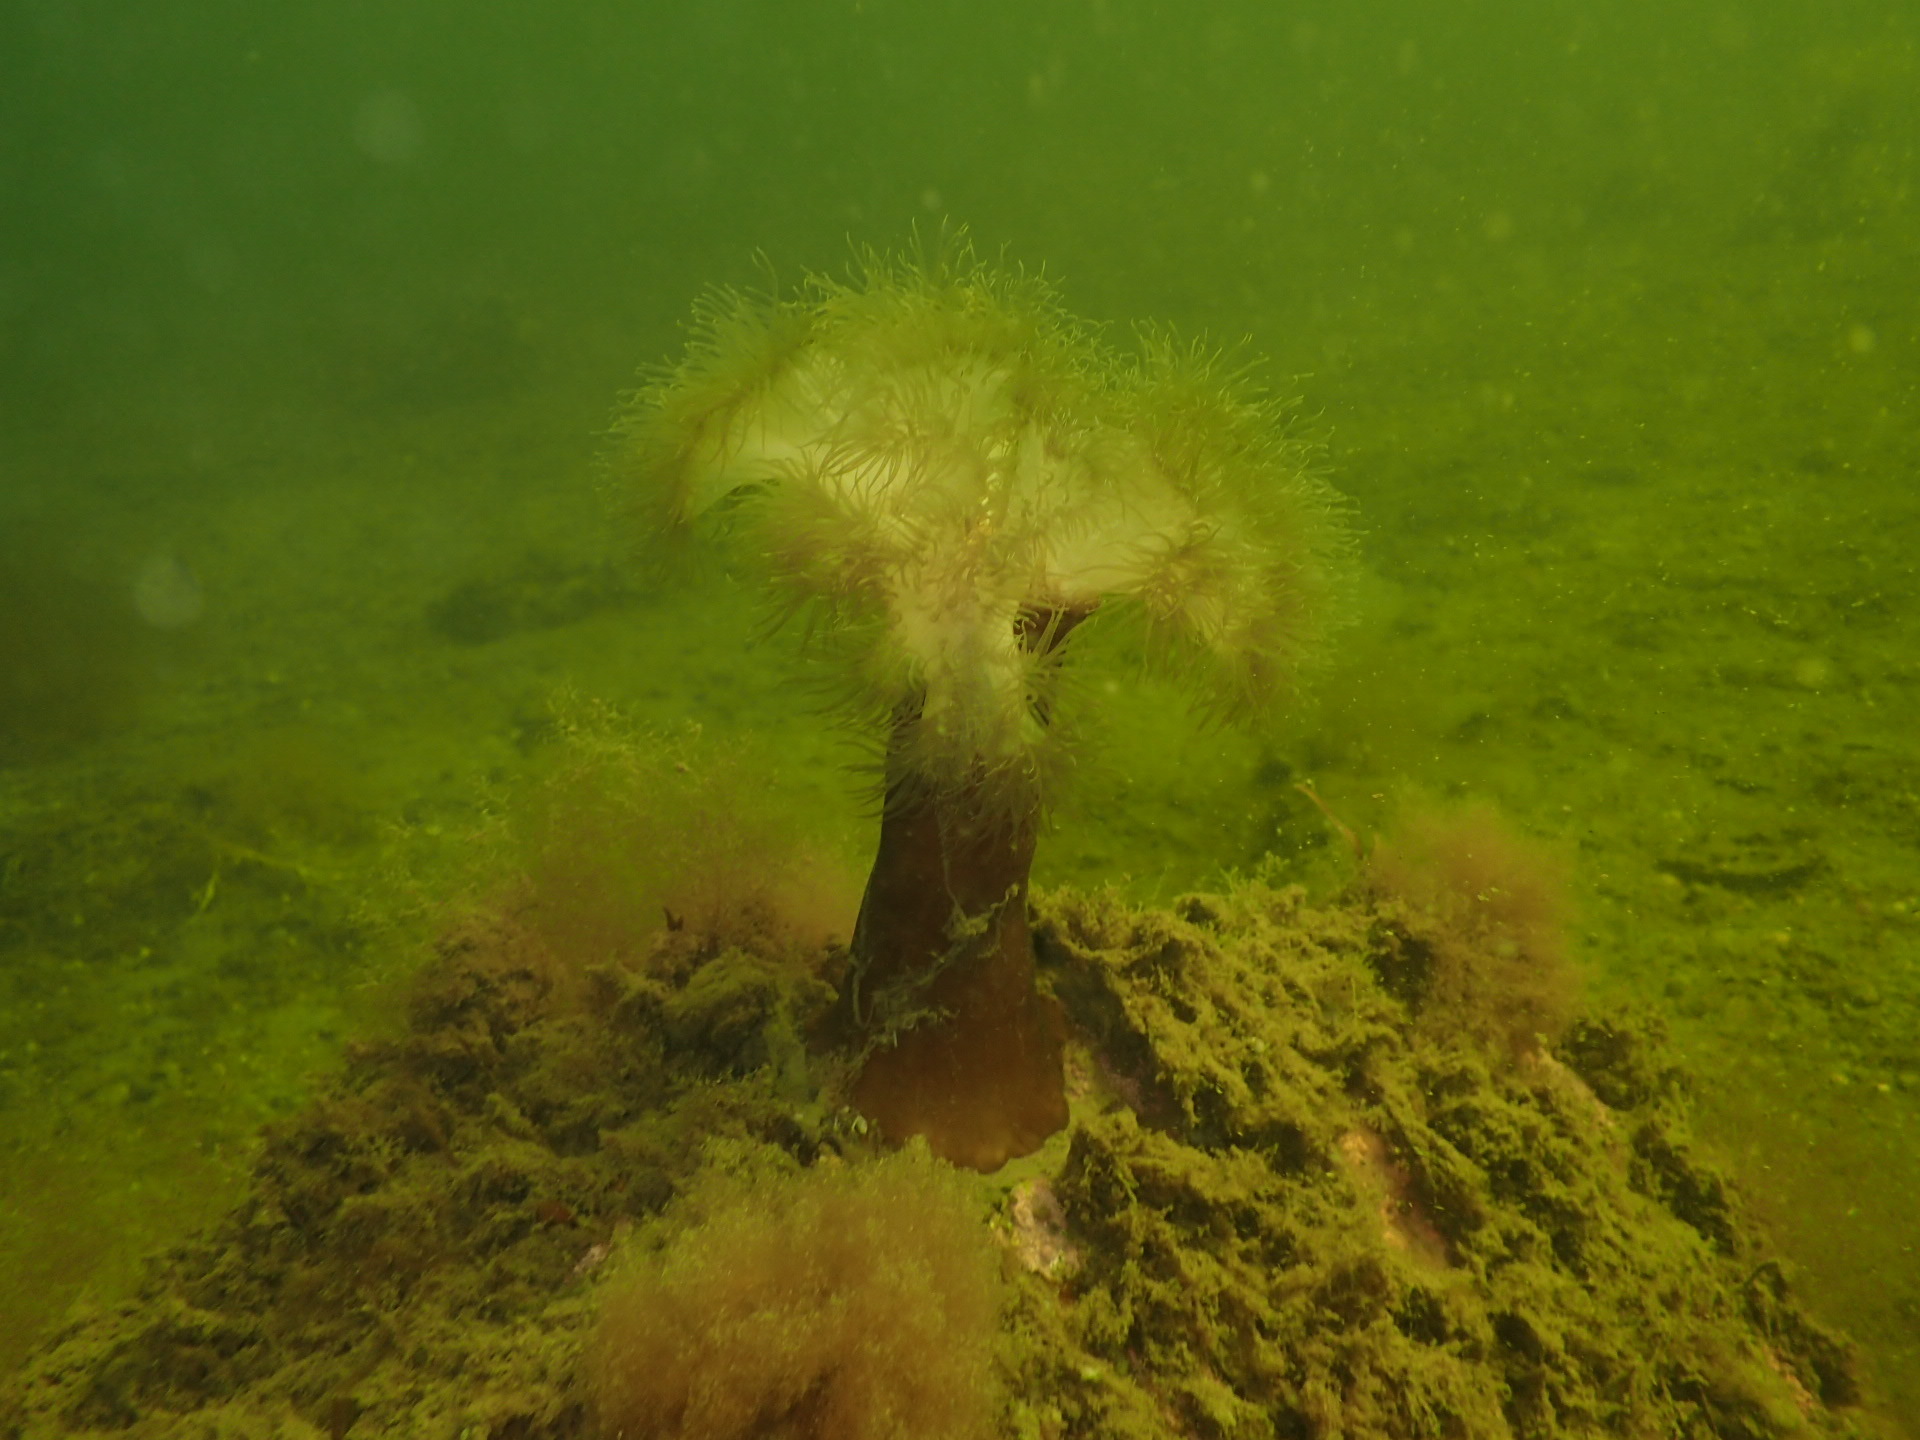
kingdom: Animalia
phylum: Cnidaria
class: Anthozoa
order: Actiniaria
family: Metridiidae
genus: Metridium
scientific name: Metridium senile
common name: Clonal plumose anemone
